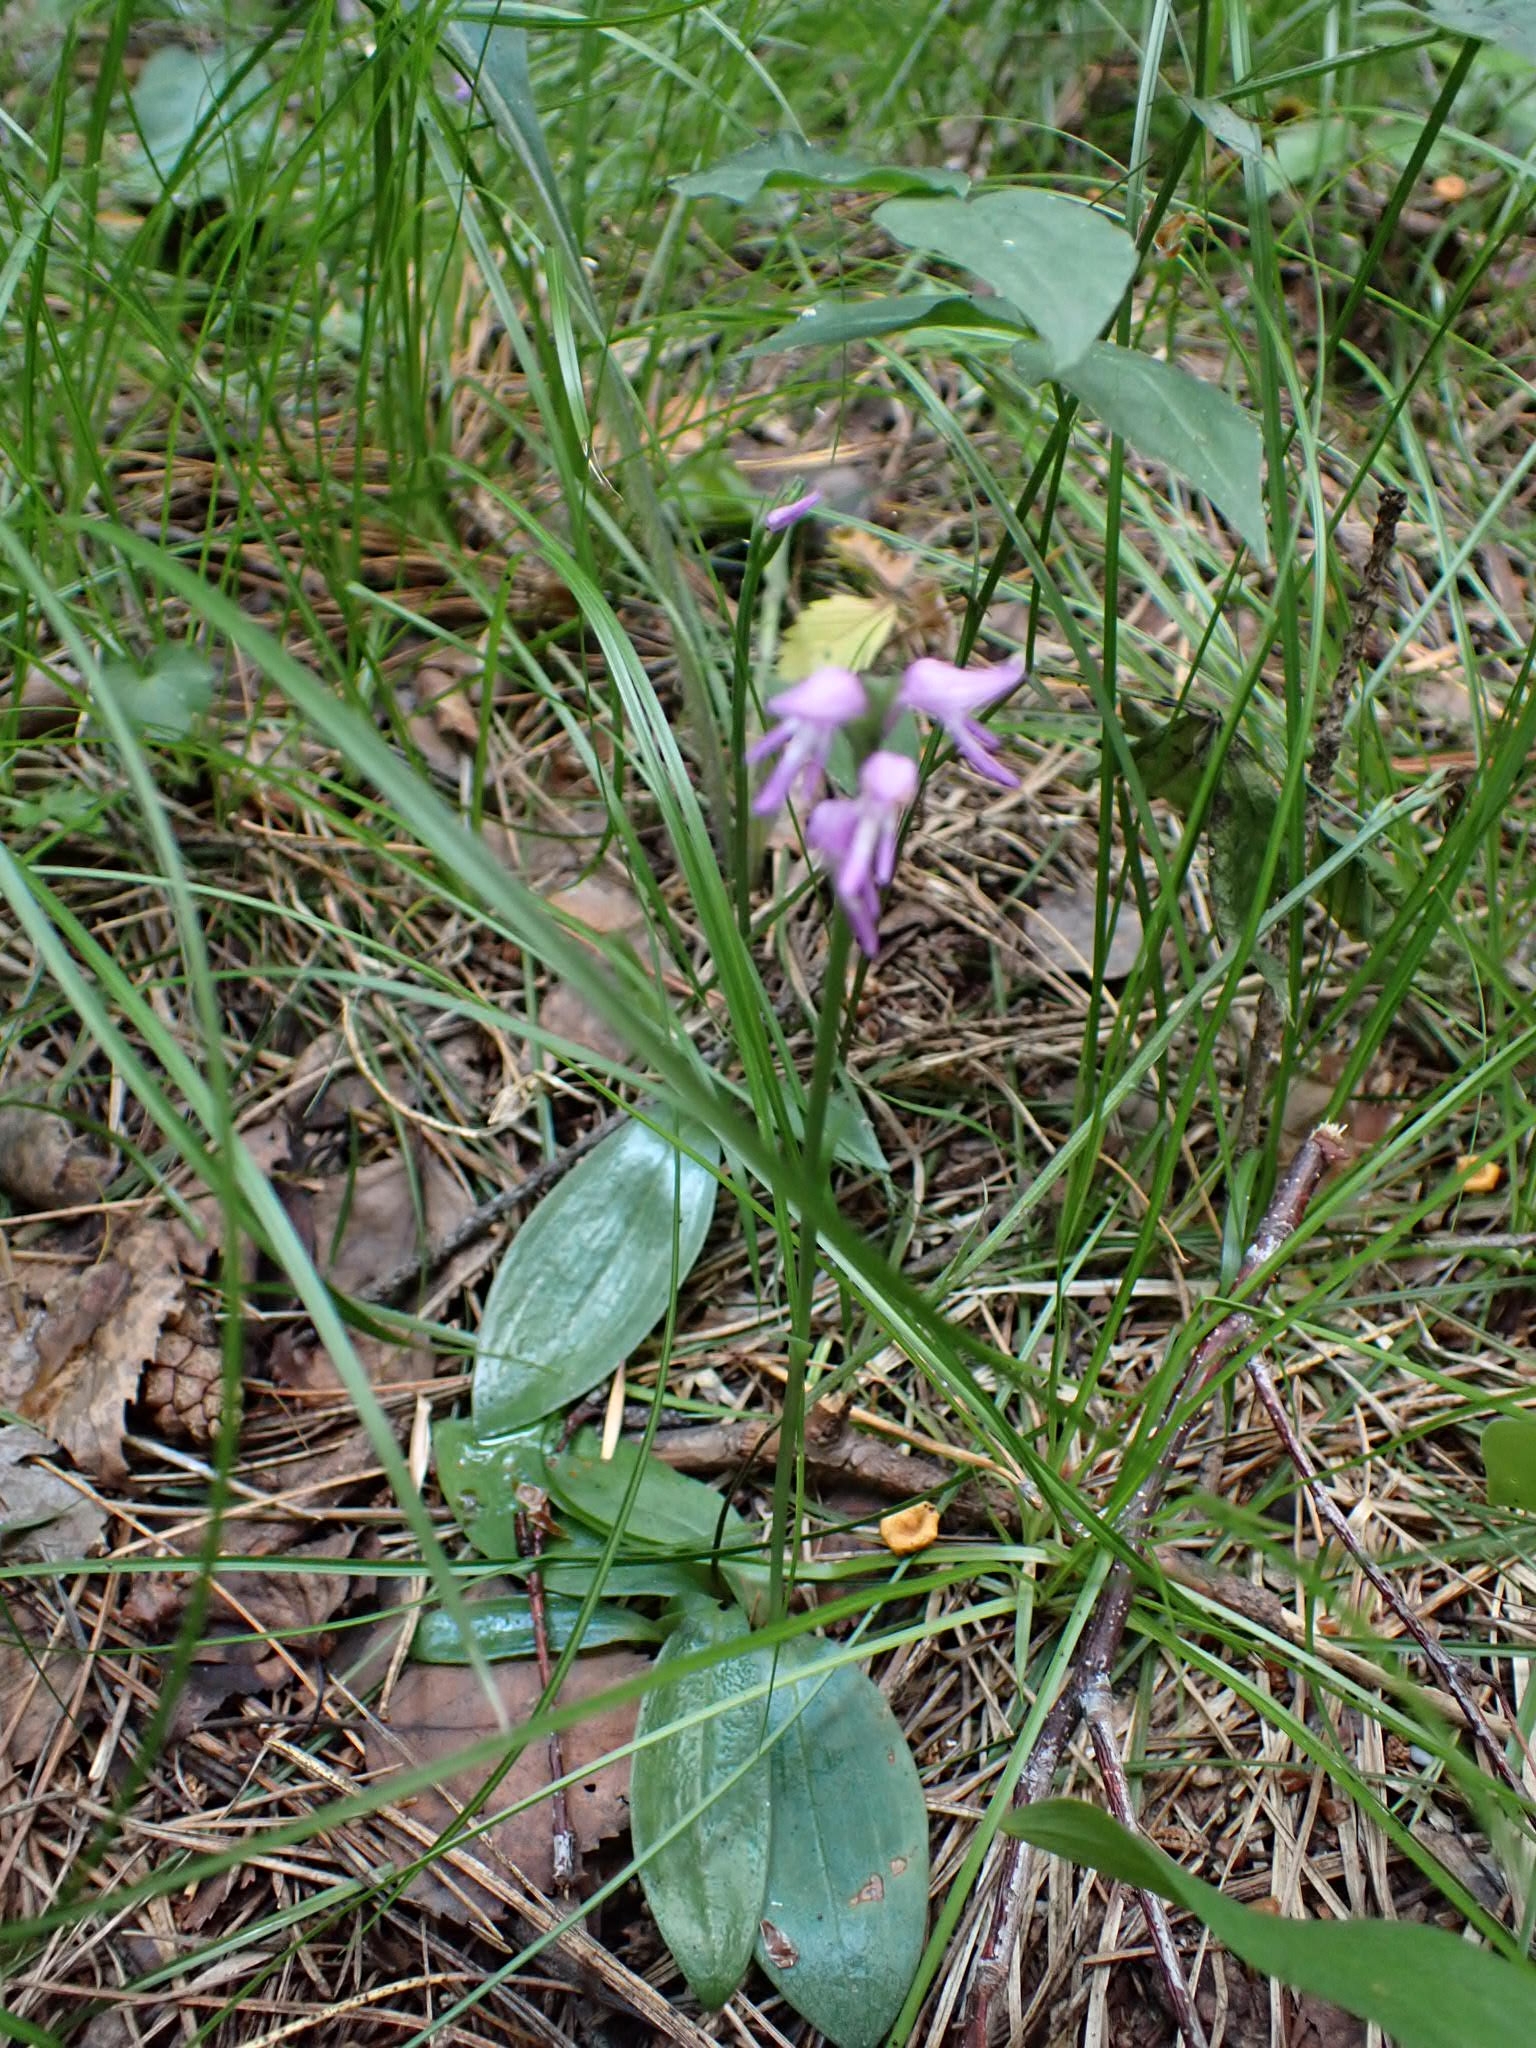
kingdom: Plantae
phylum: Tracheophyta
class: Liliopsida
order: Asparagales
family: Orchidaceae
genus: Hemipilia
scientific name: Hemipilia cucullata
